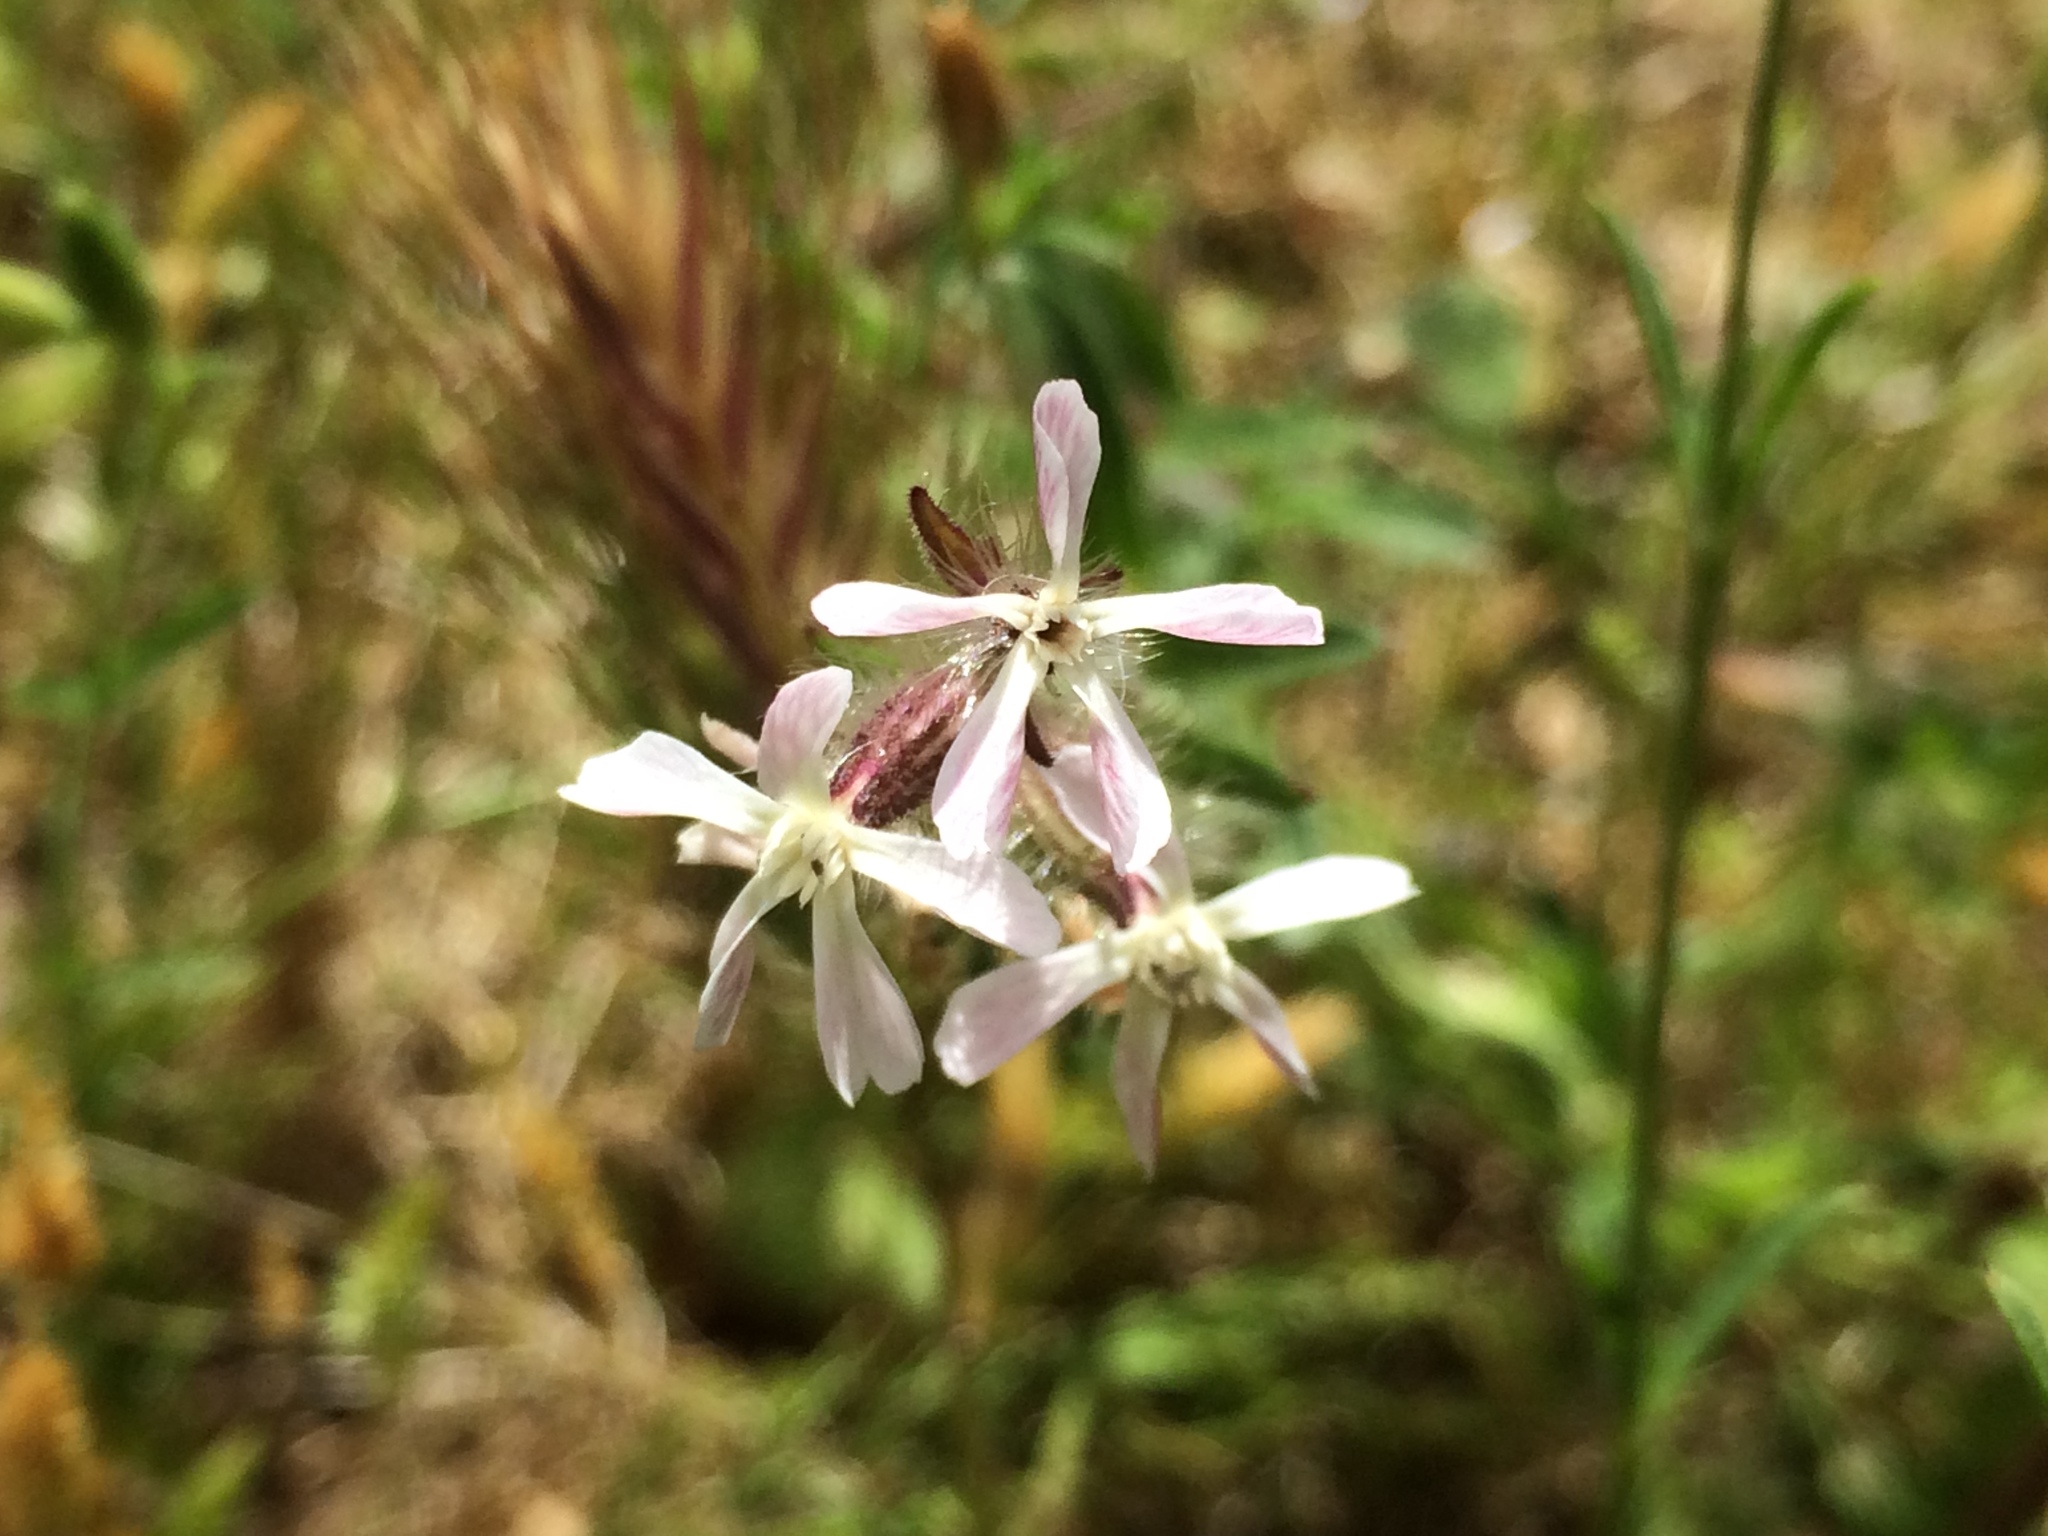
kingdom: Plantae
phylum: Tracheophyta
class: Magnoliopsida
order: Caryophyllales
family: Caryophyllaceae
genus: Silene
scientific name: Silene gallica
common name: Small-flowered catchfly
